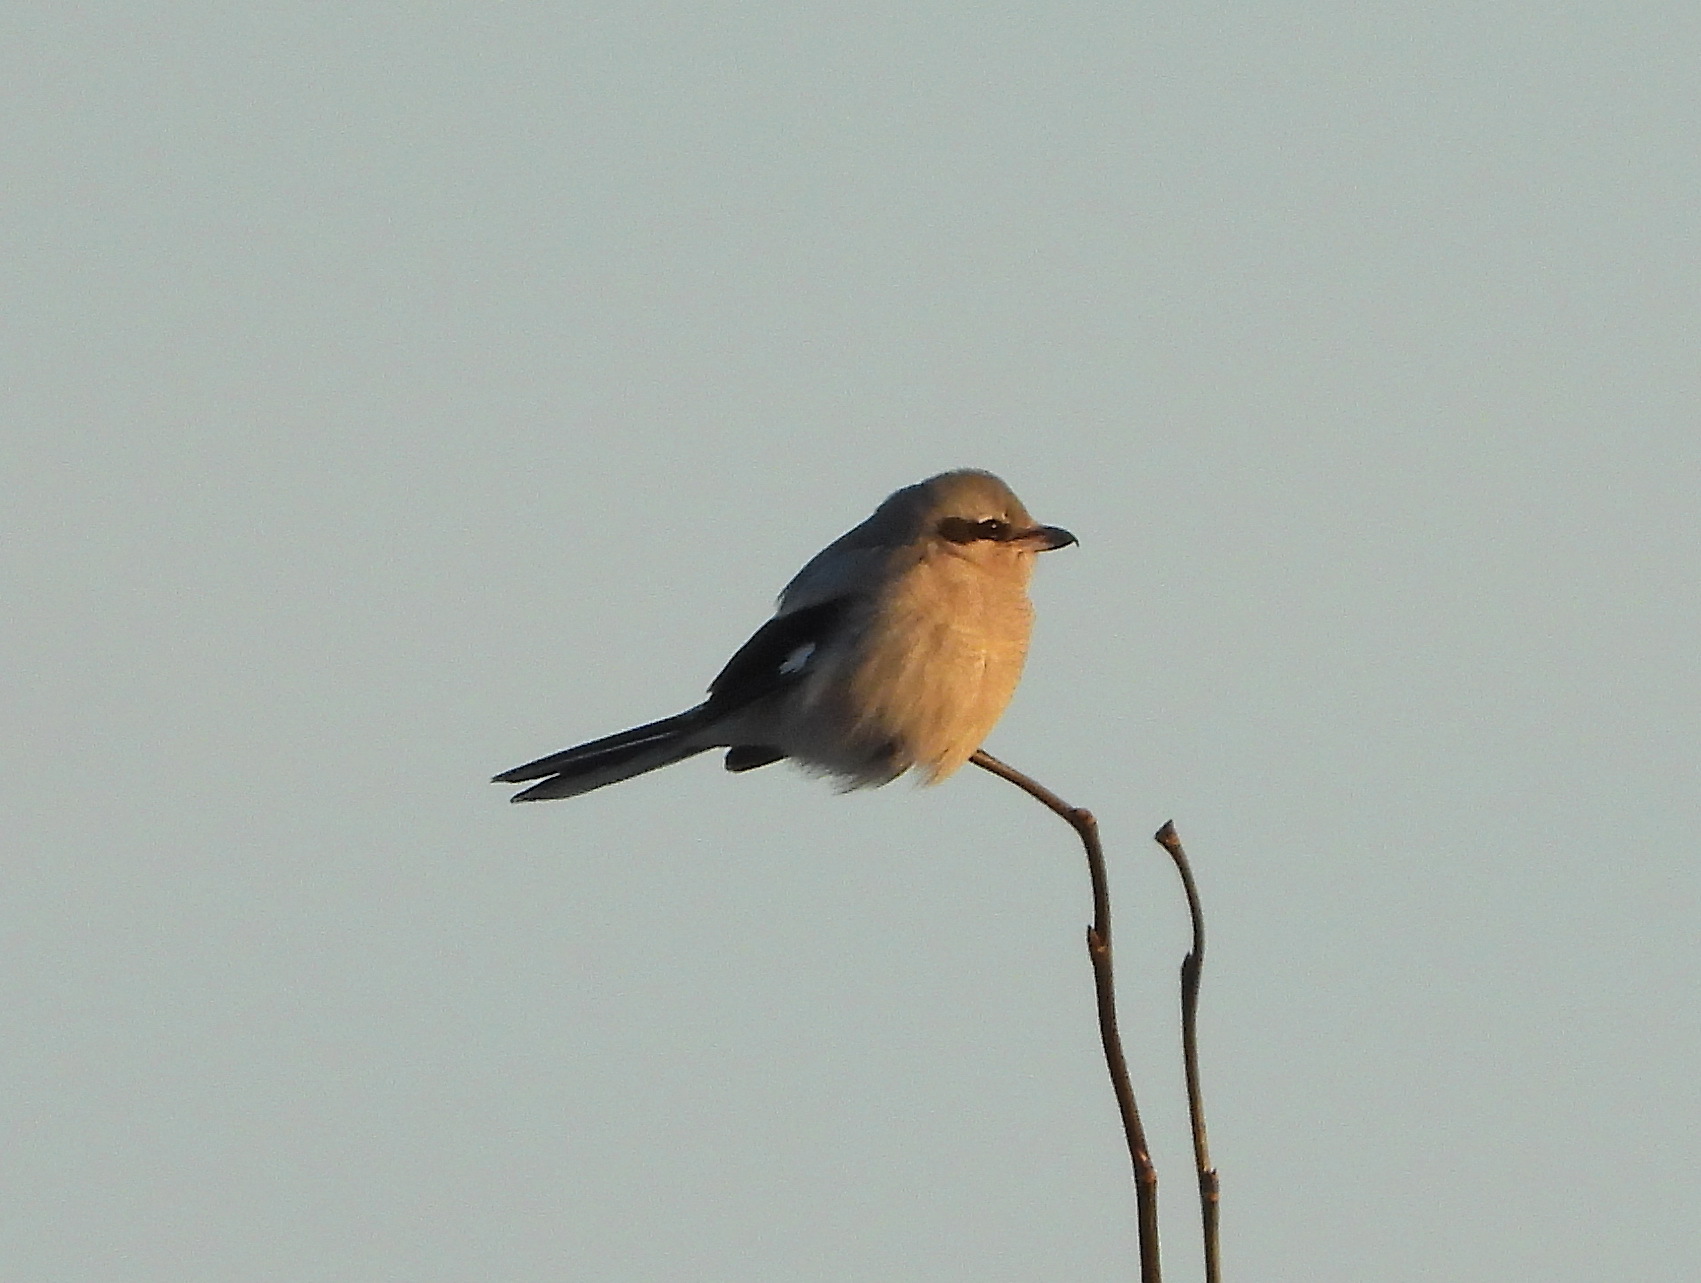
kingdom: Animalia
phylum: Chordata
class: Aves
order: Passeriformes
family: Laniidae
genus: Lanius
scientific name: Lanius excubitor
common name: Great grey shrike
